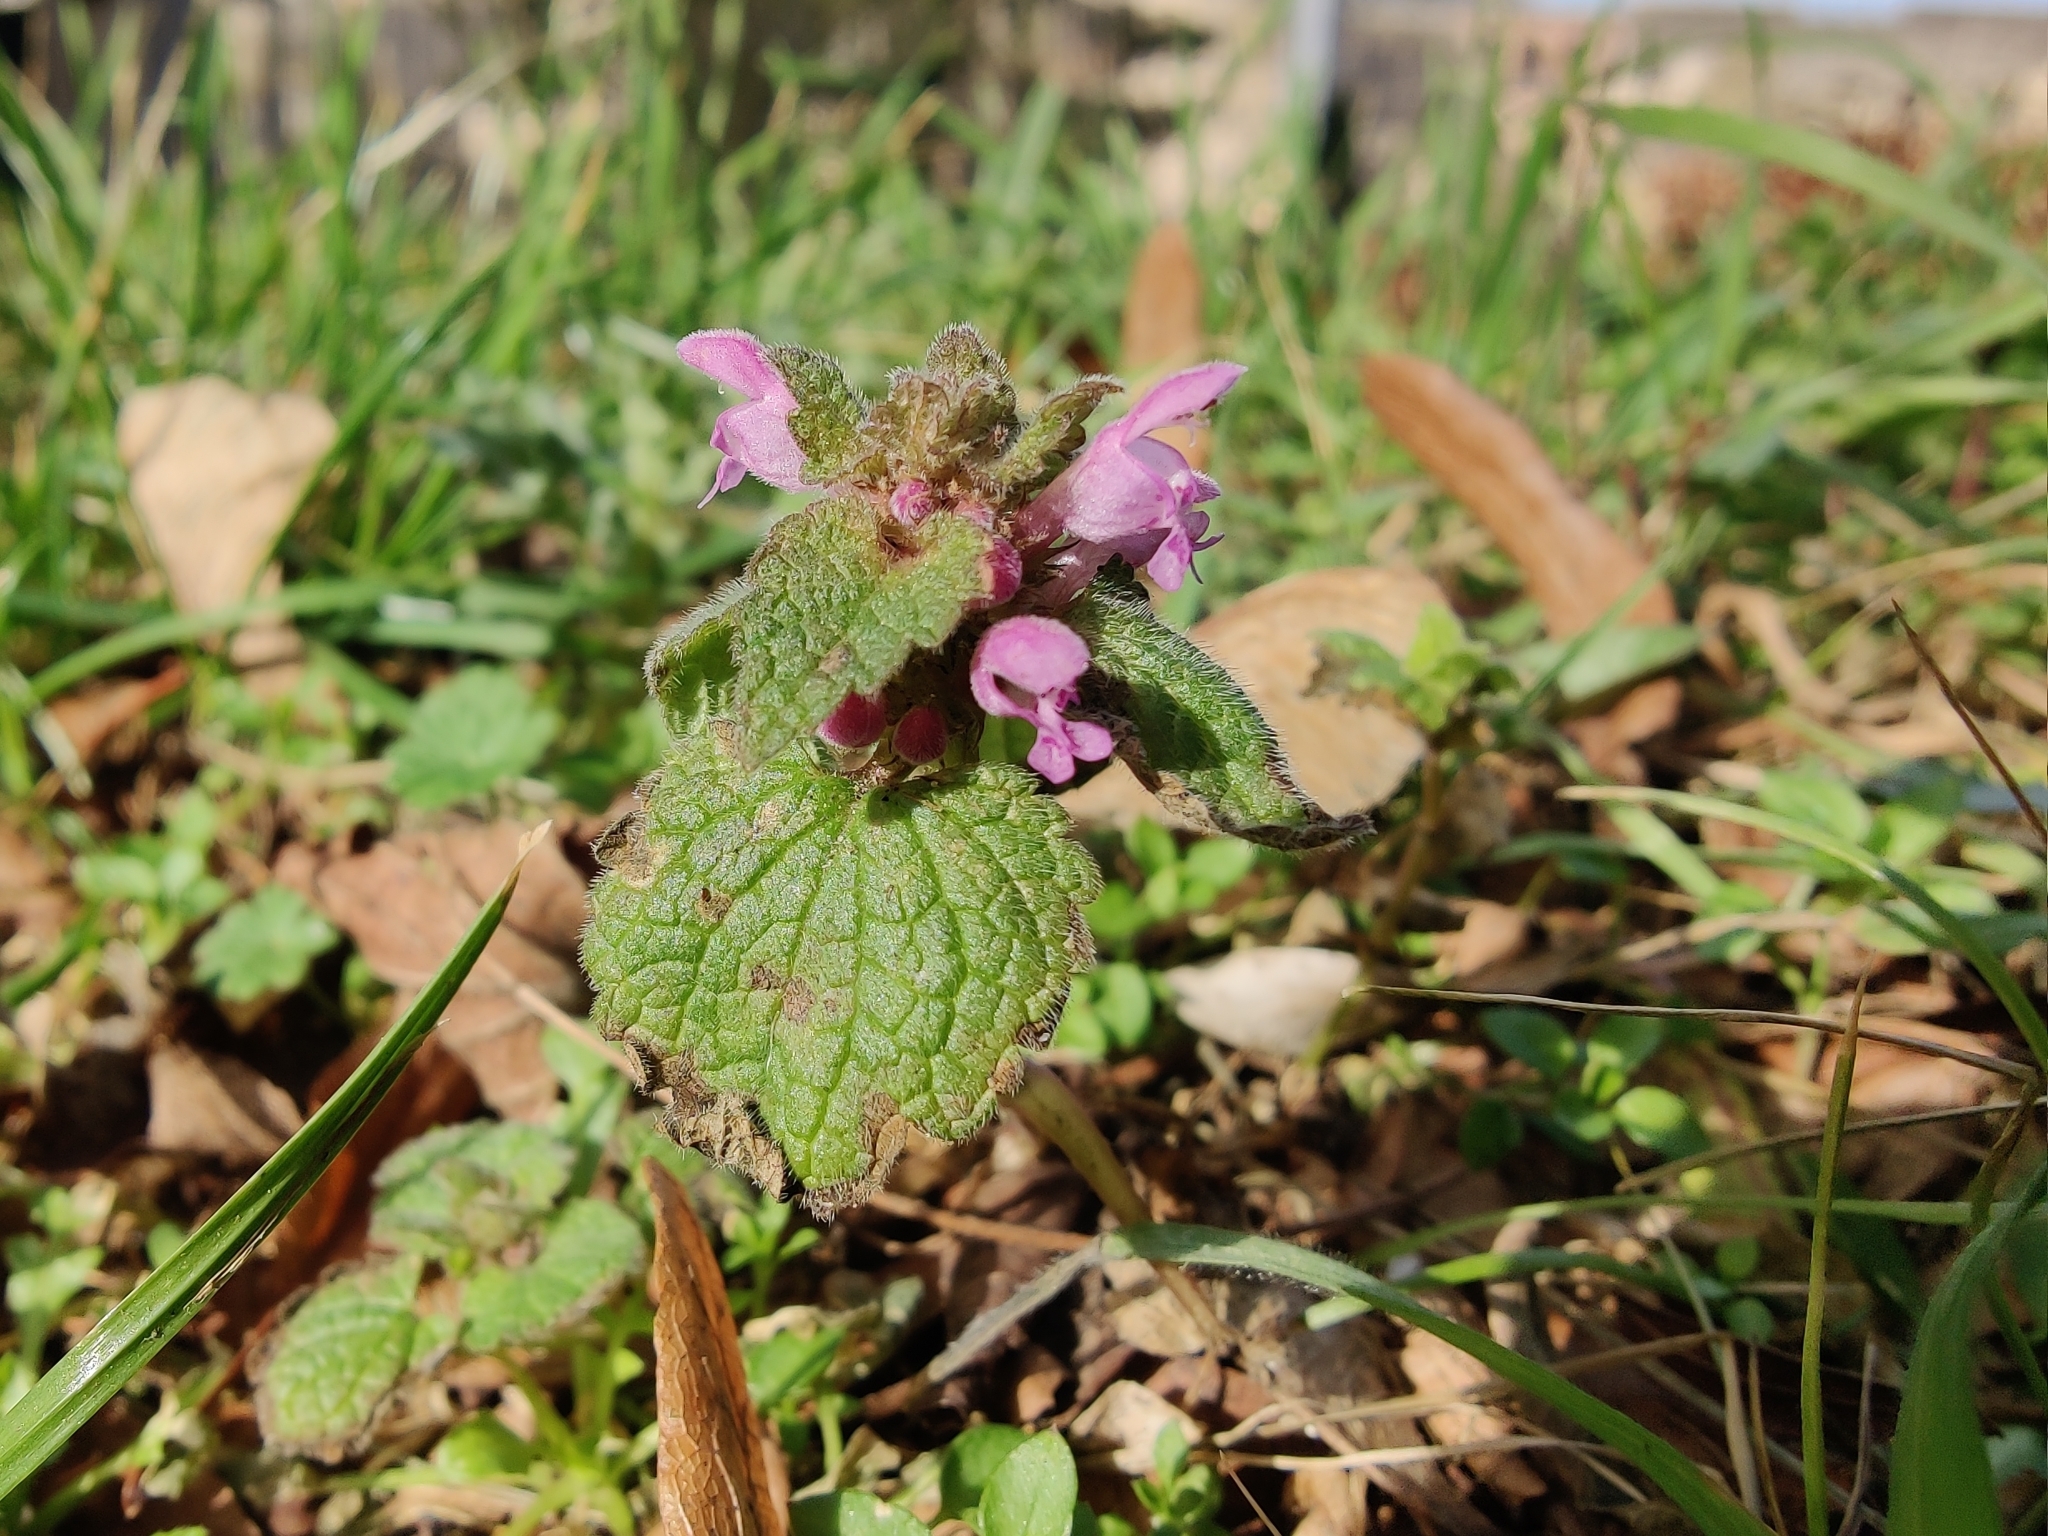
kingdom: Plantae
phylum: Tracheophyta
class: Magnoliopsida
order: Lamiales
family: Lamiaceae
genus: Lamium
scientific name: Lamium purpureum
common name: Red dead-nettle
